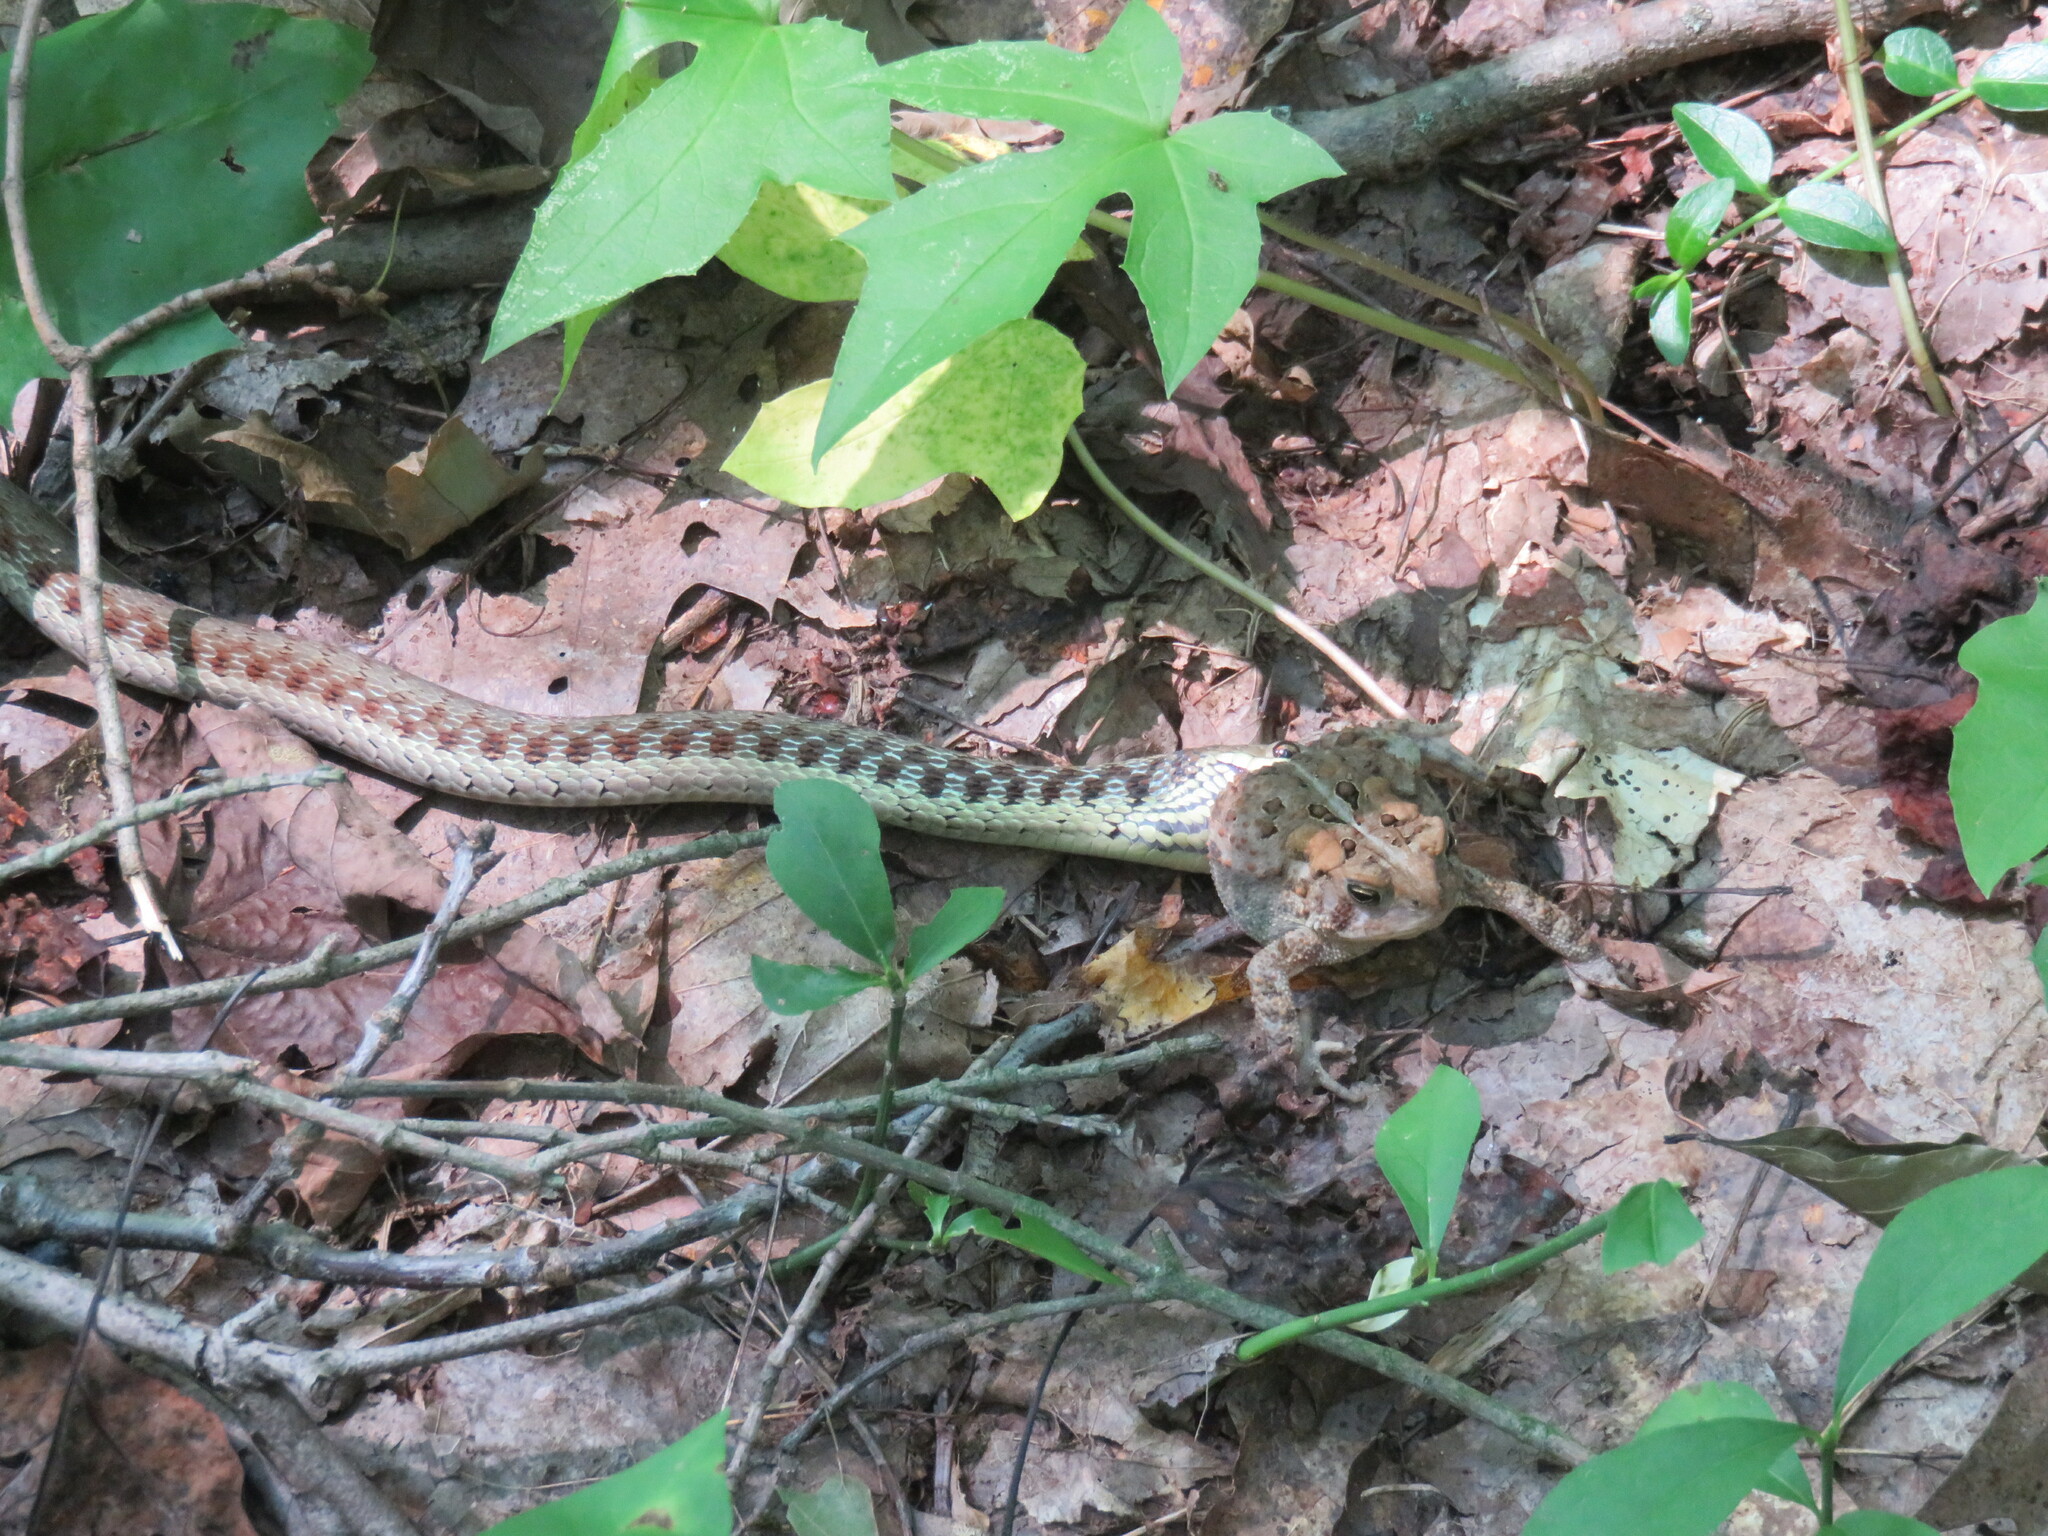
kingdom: Animalia
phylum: Chordata
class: Amphibia
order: Anura
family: Bufonidae
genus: Anaxyrus
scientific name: Anaxyrus americanus
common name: American toad
